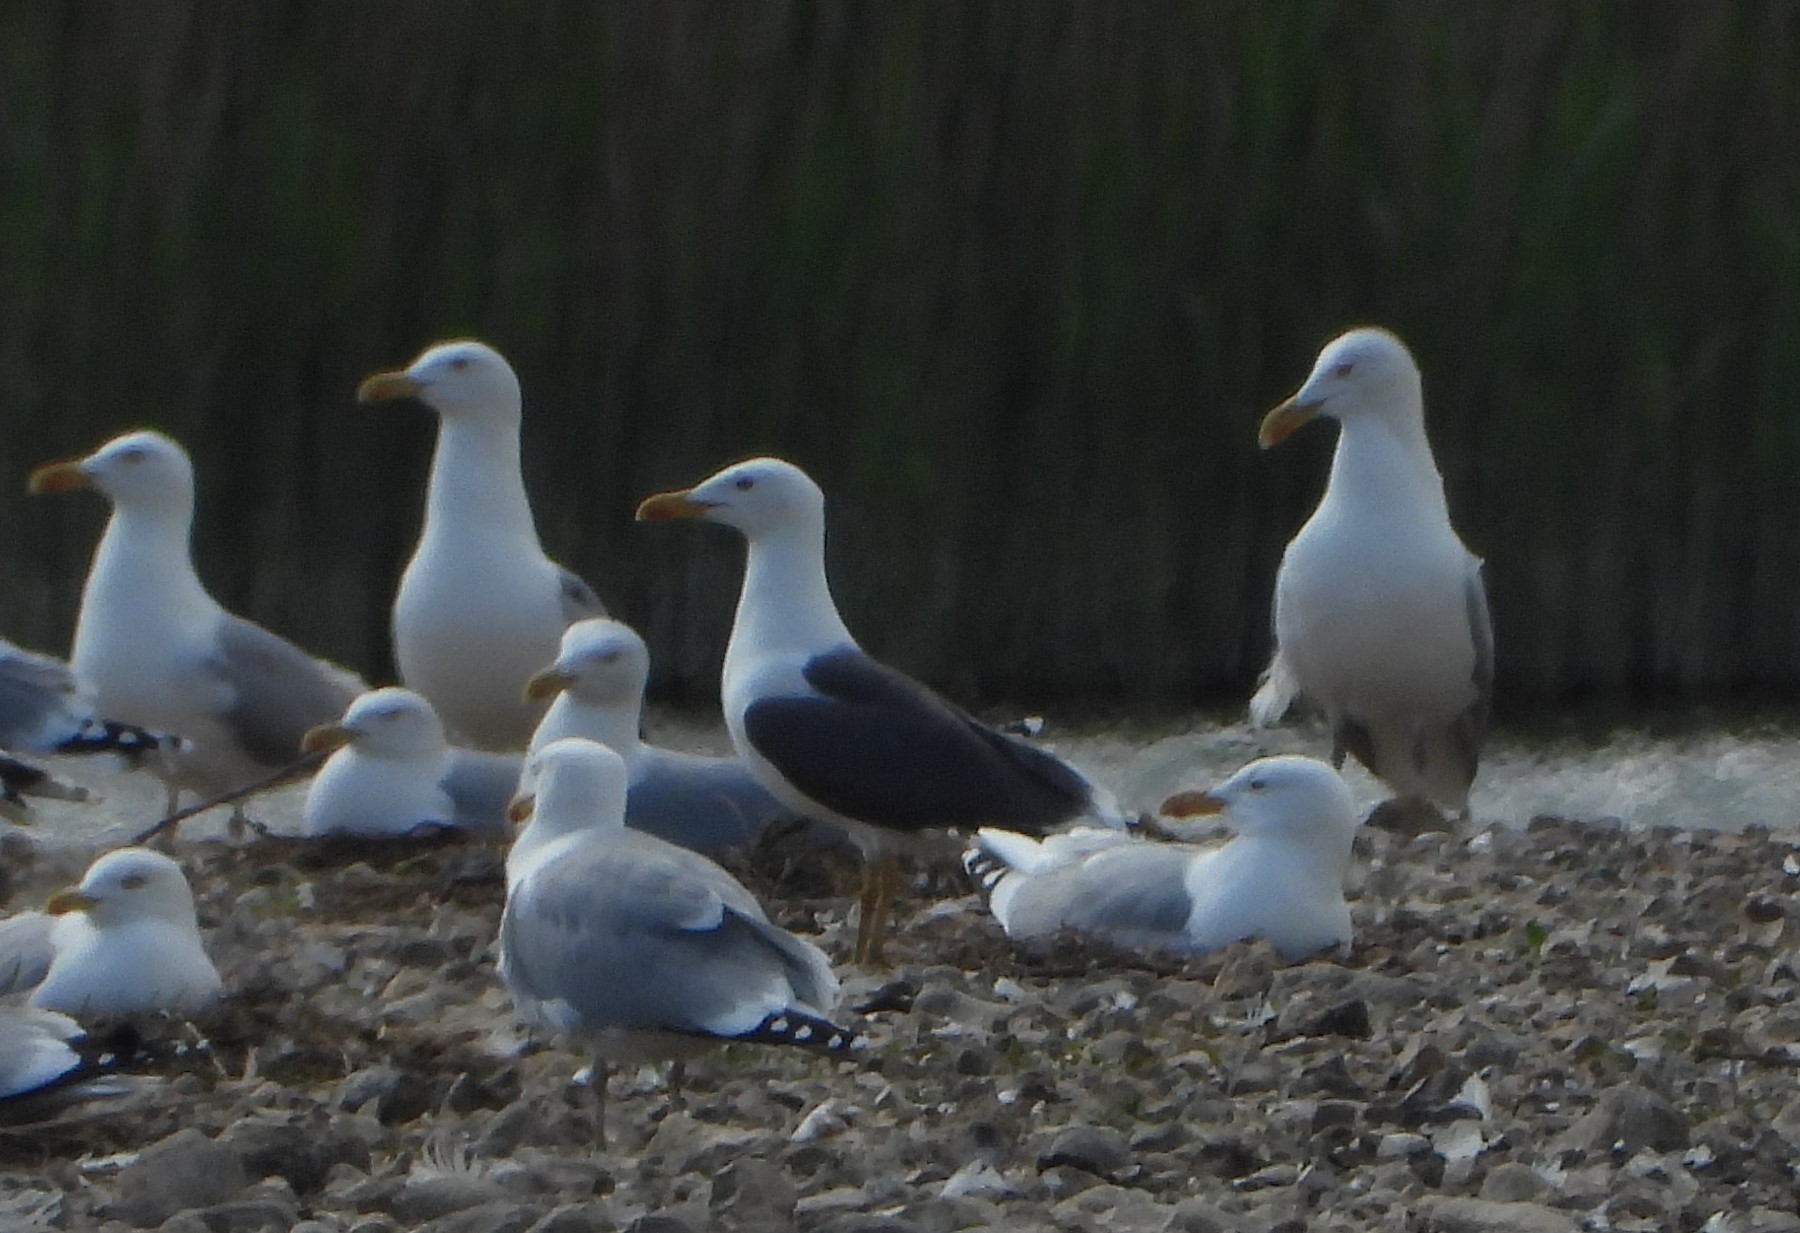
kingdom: Animalia
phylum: Chordata
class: Aves
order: Charadriiformes
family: Laridae
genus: Larus
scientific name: Larus fuscus
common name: Lesser black-backed gull
